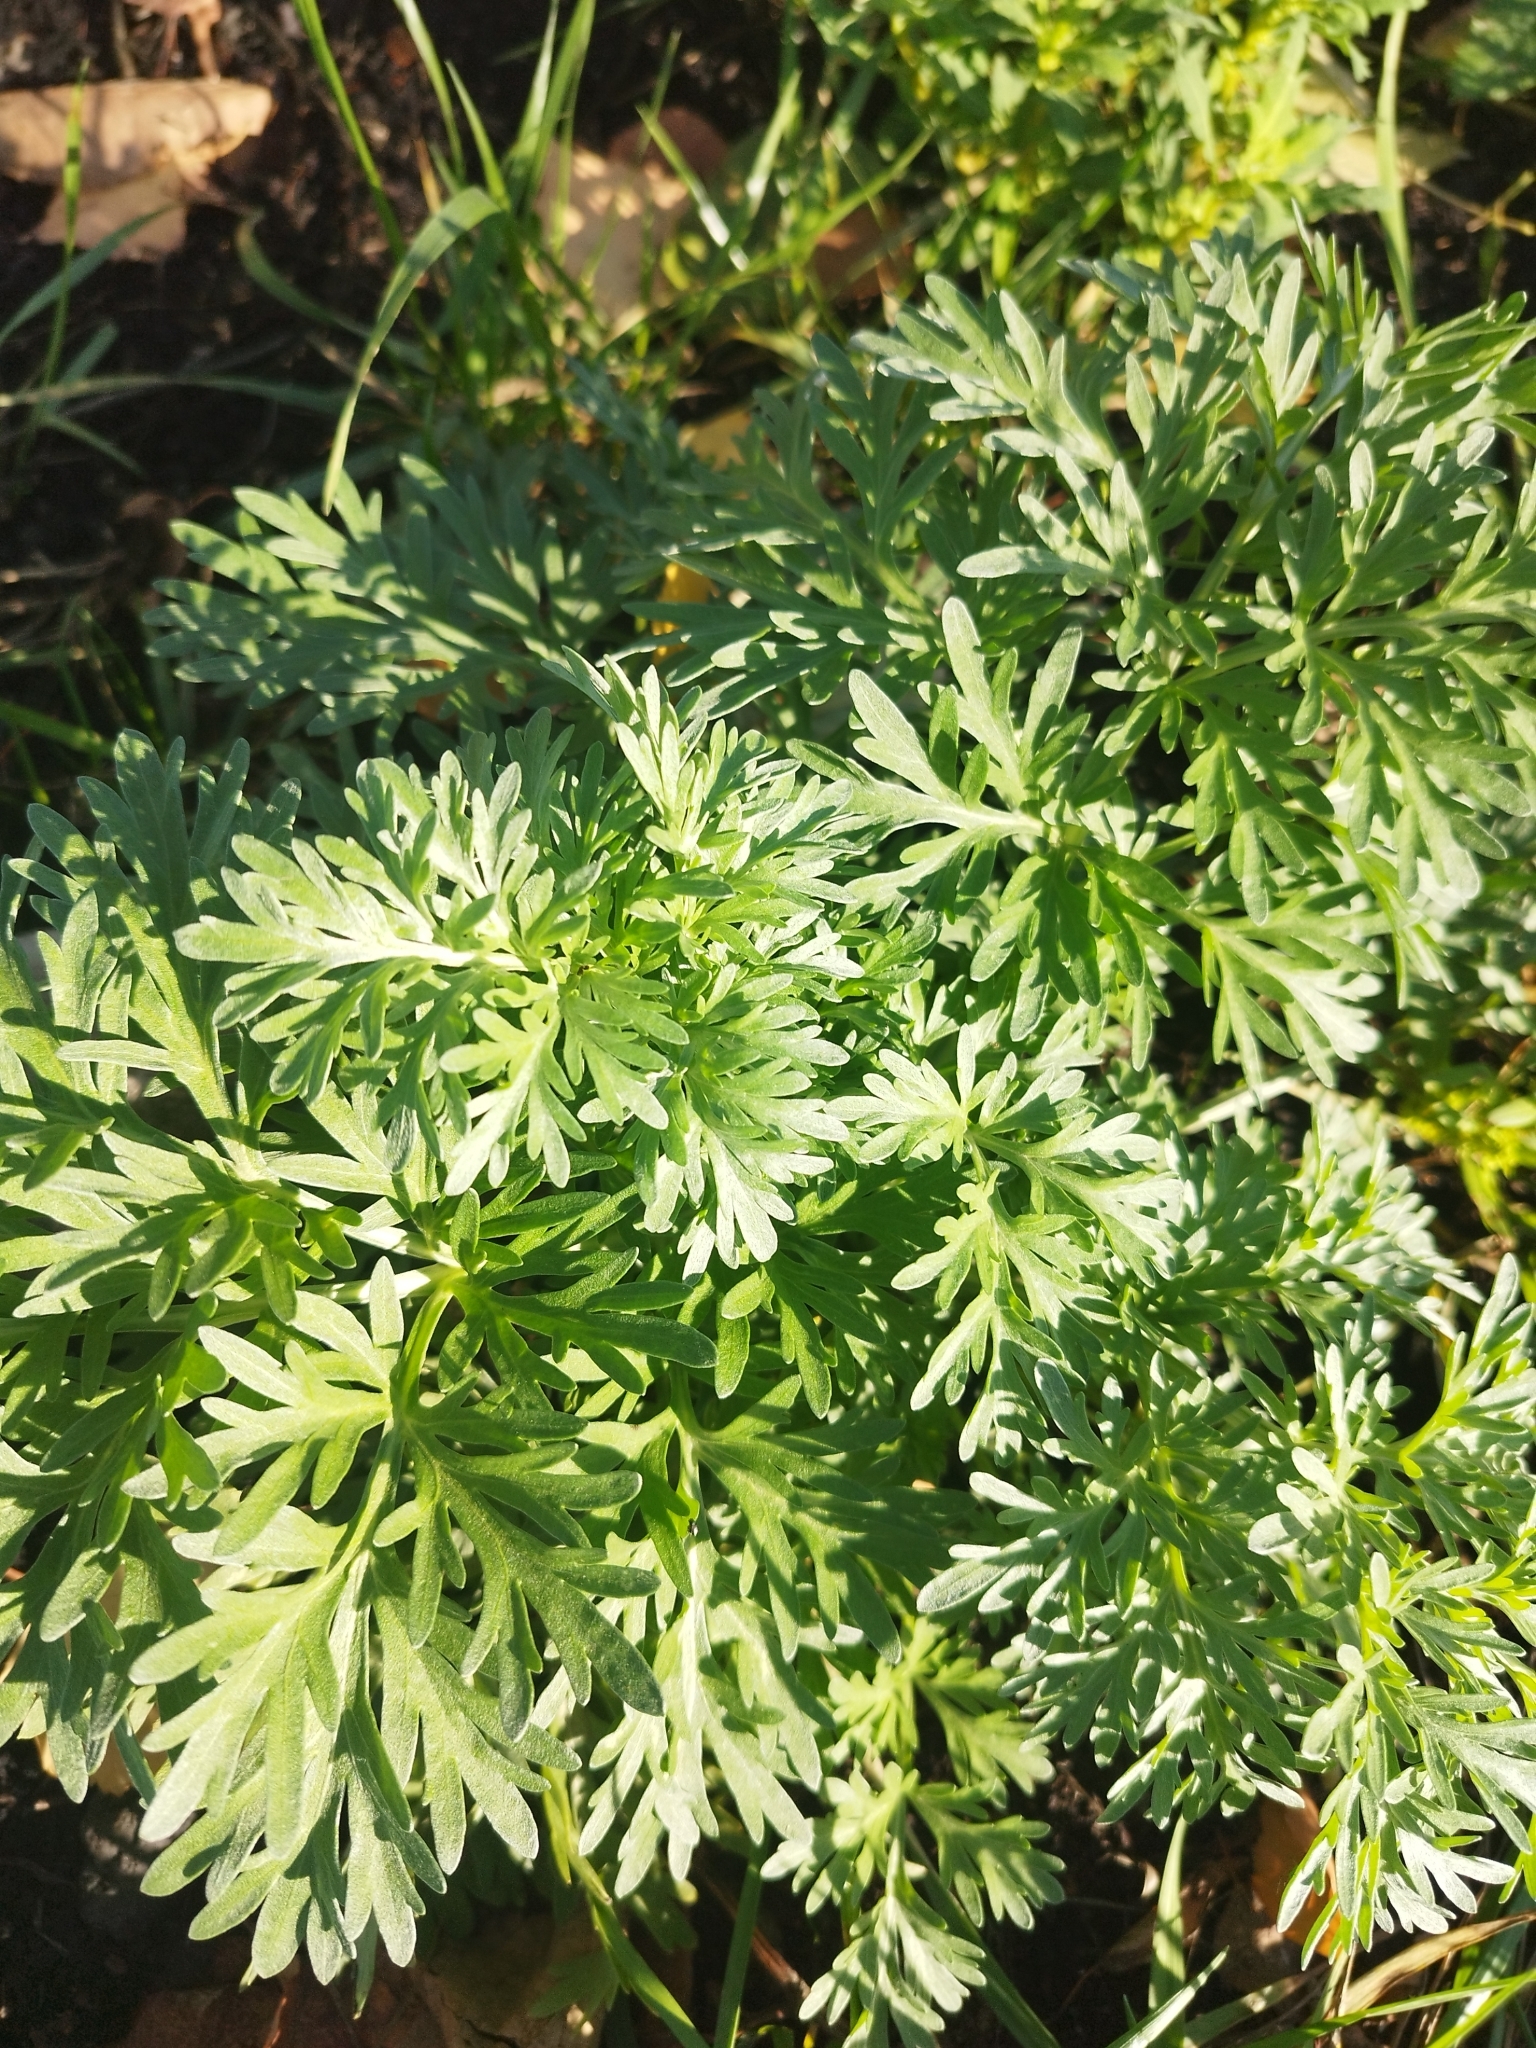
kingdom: Plantae
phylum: Tracheophyta
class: Magnoliopsida
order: Asterales
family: Asteraceae
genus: Artemisia
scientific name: Artemisia absinthium
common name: Wormwood
